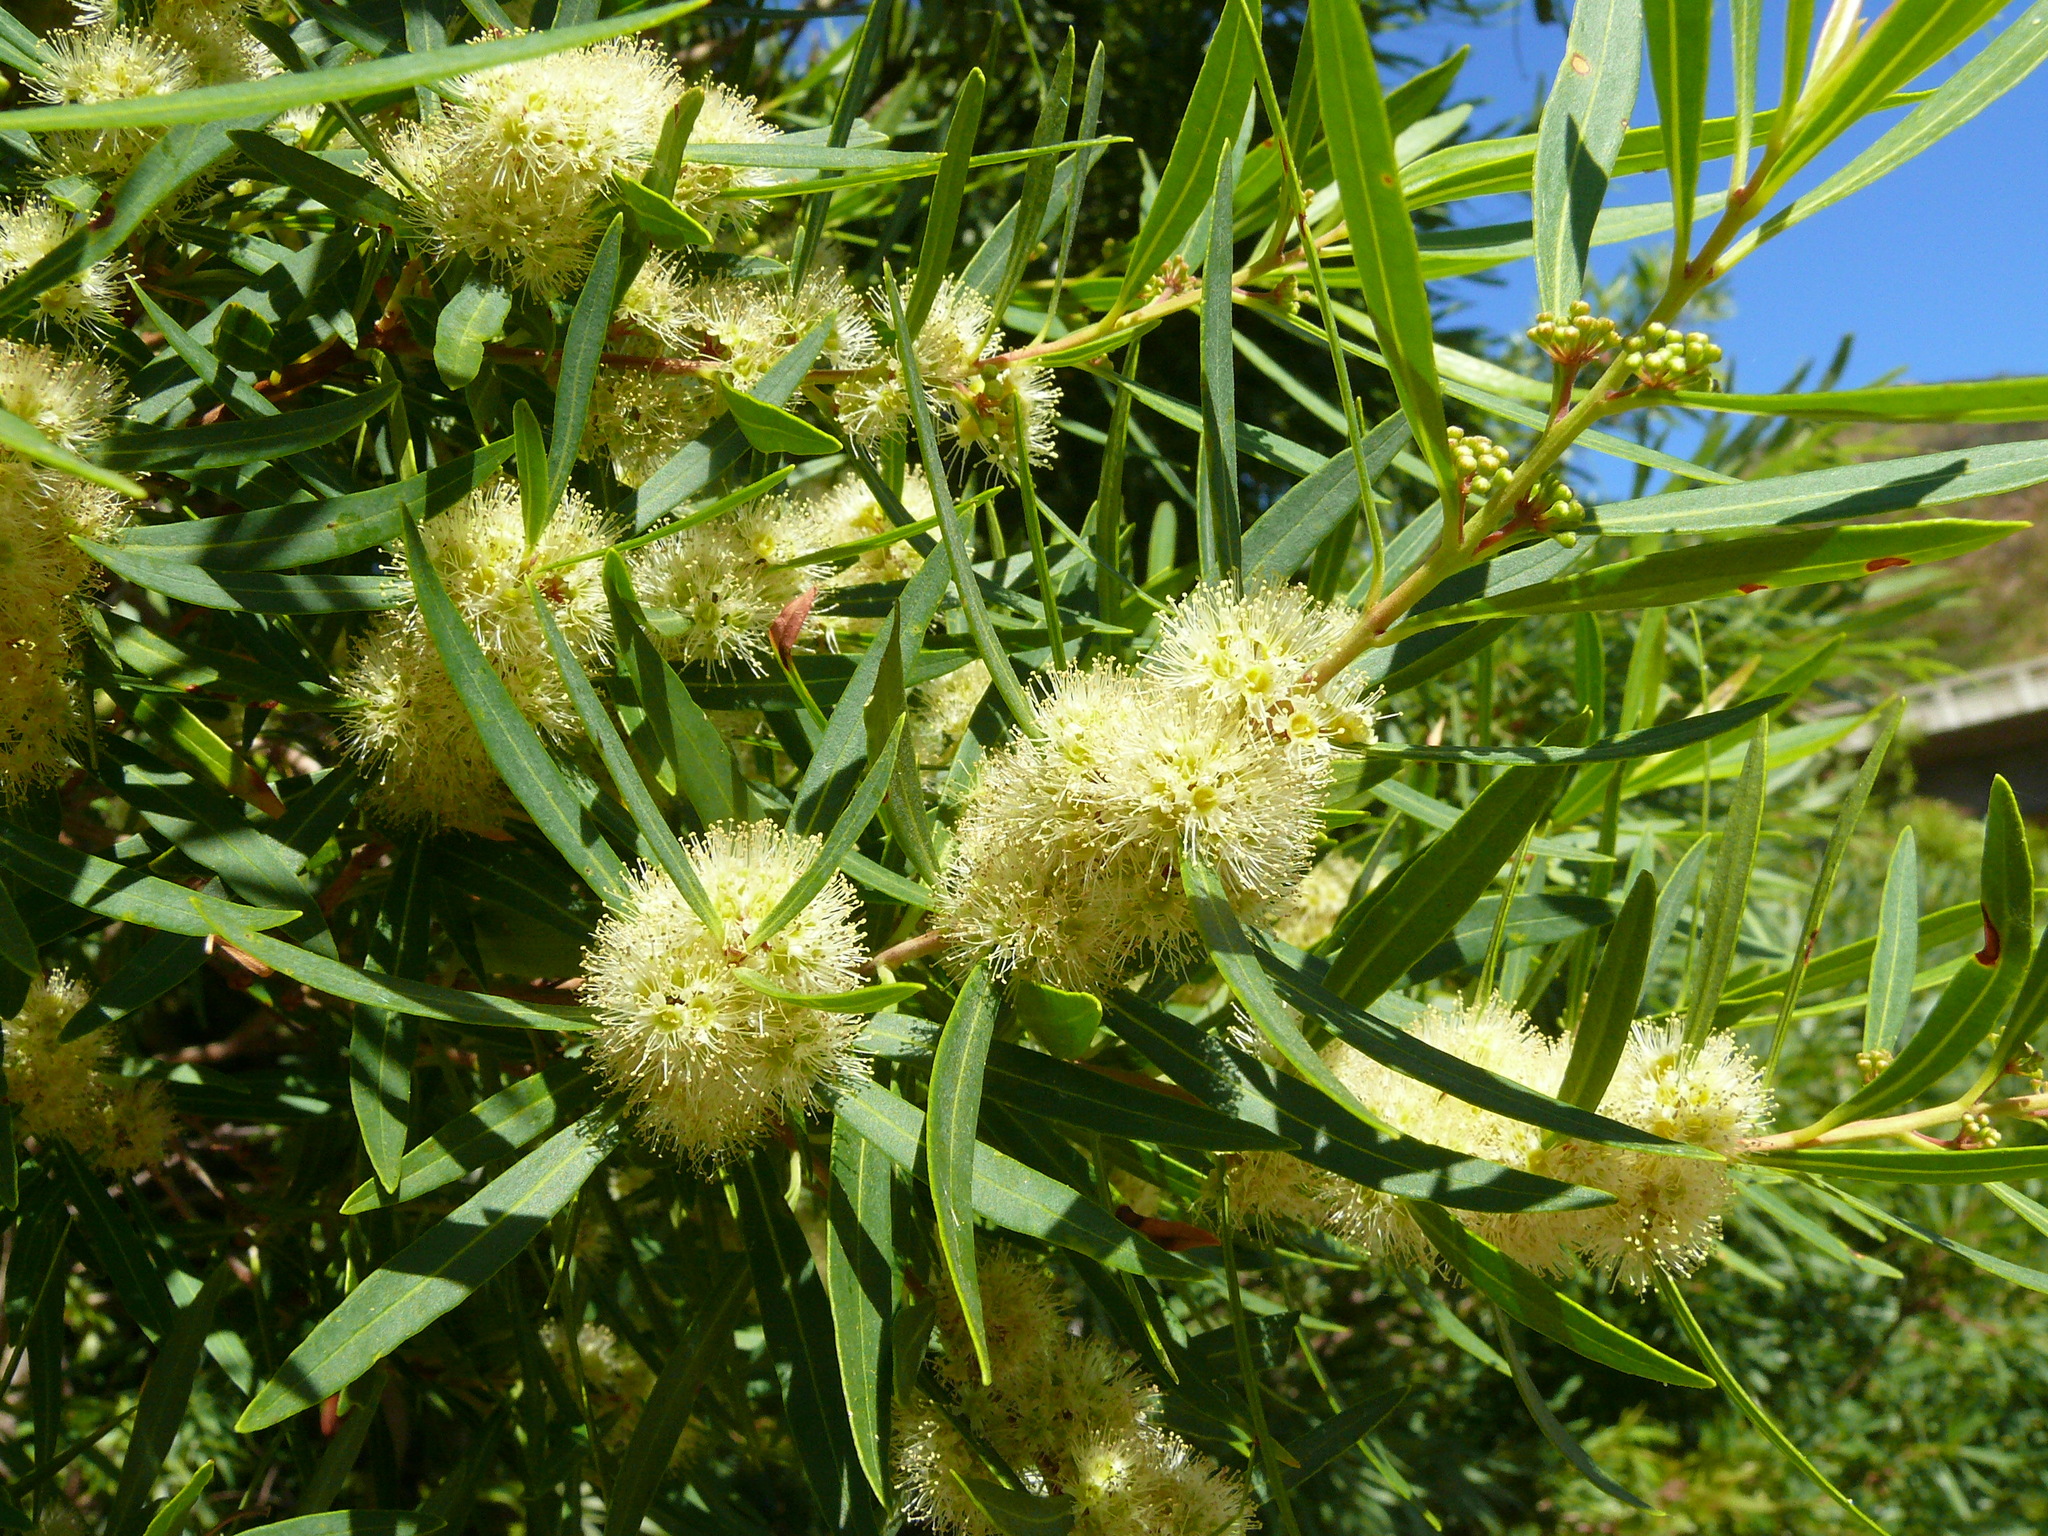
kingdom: Plantae
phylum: Tracheophyta
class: Magnoliopsida
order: Myrtales
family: Myrtaceae
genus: Callistemon
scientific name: Callistemon lanceolatus
